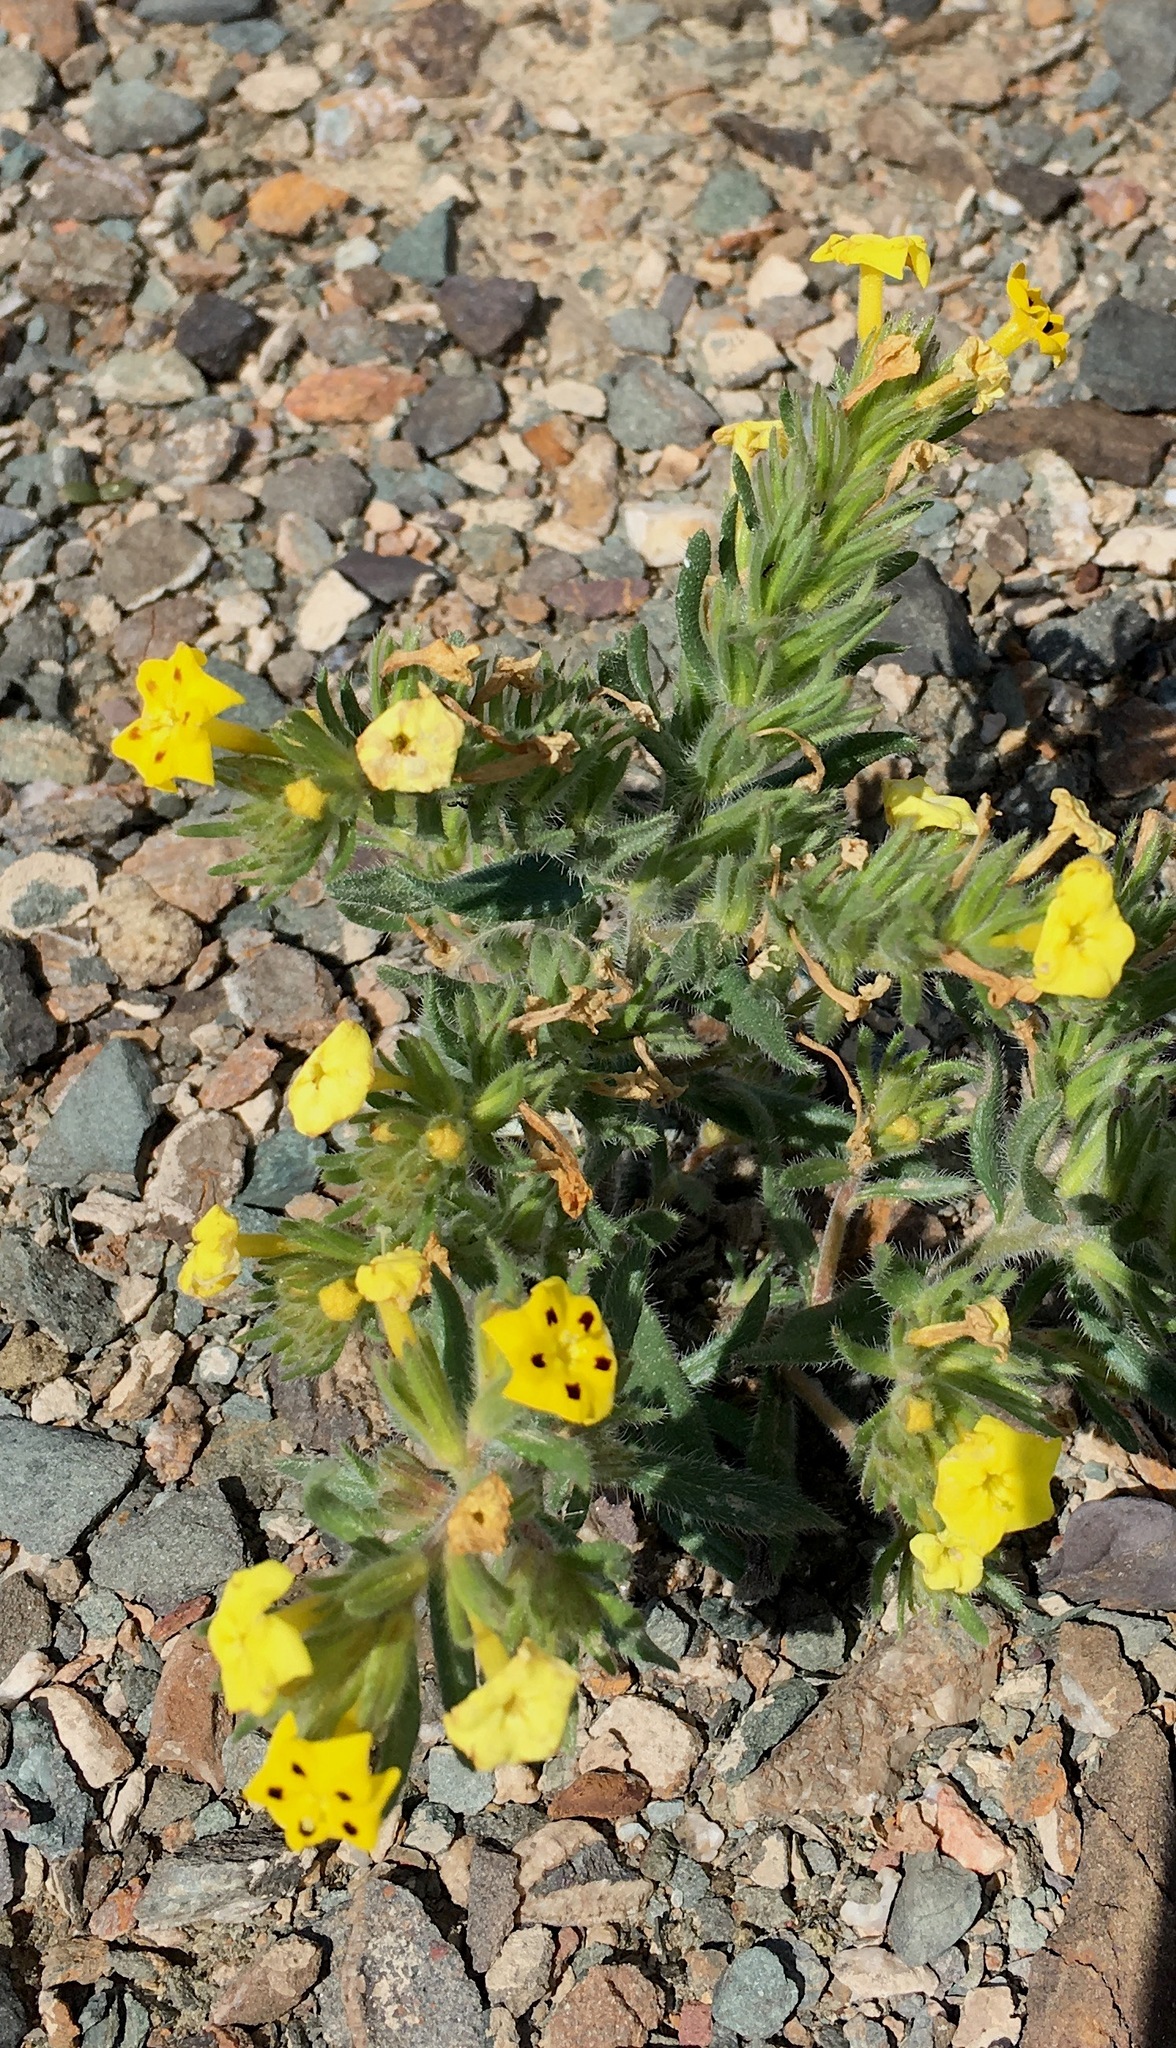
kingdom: Plantae
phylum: Tracheophyta
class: Magnoliopsida
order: Boraginales
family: Boraginaceae
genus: Arnebia
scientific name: Arnebia coerulea
